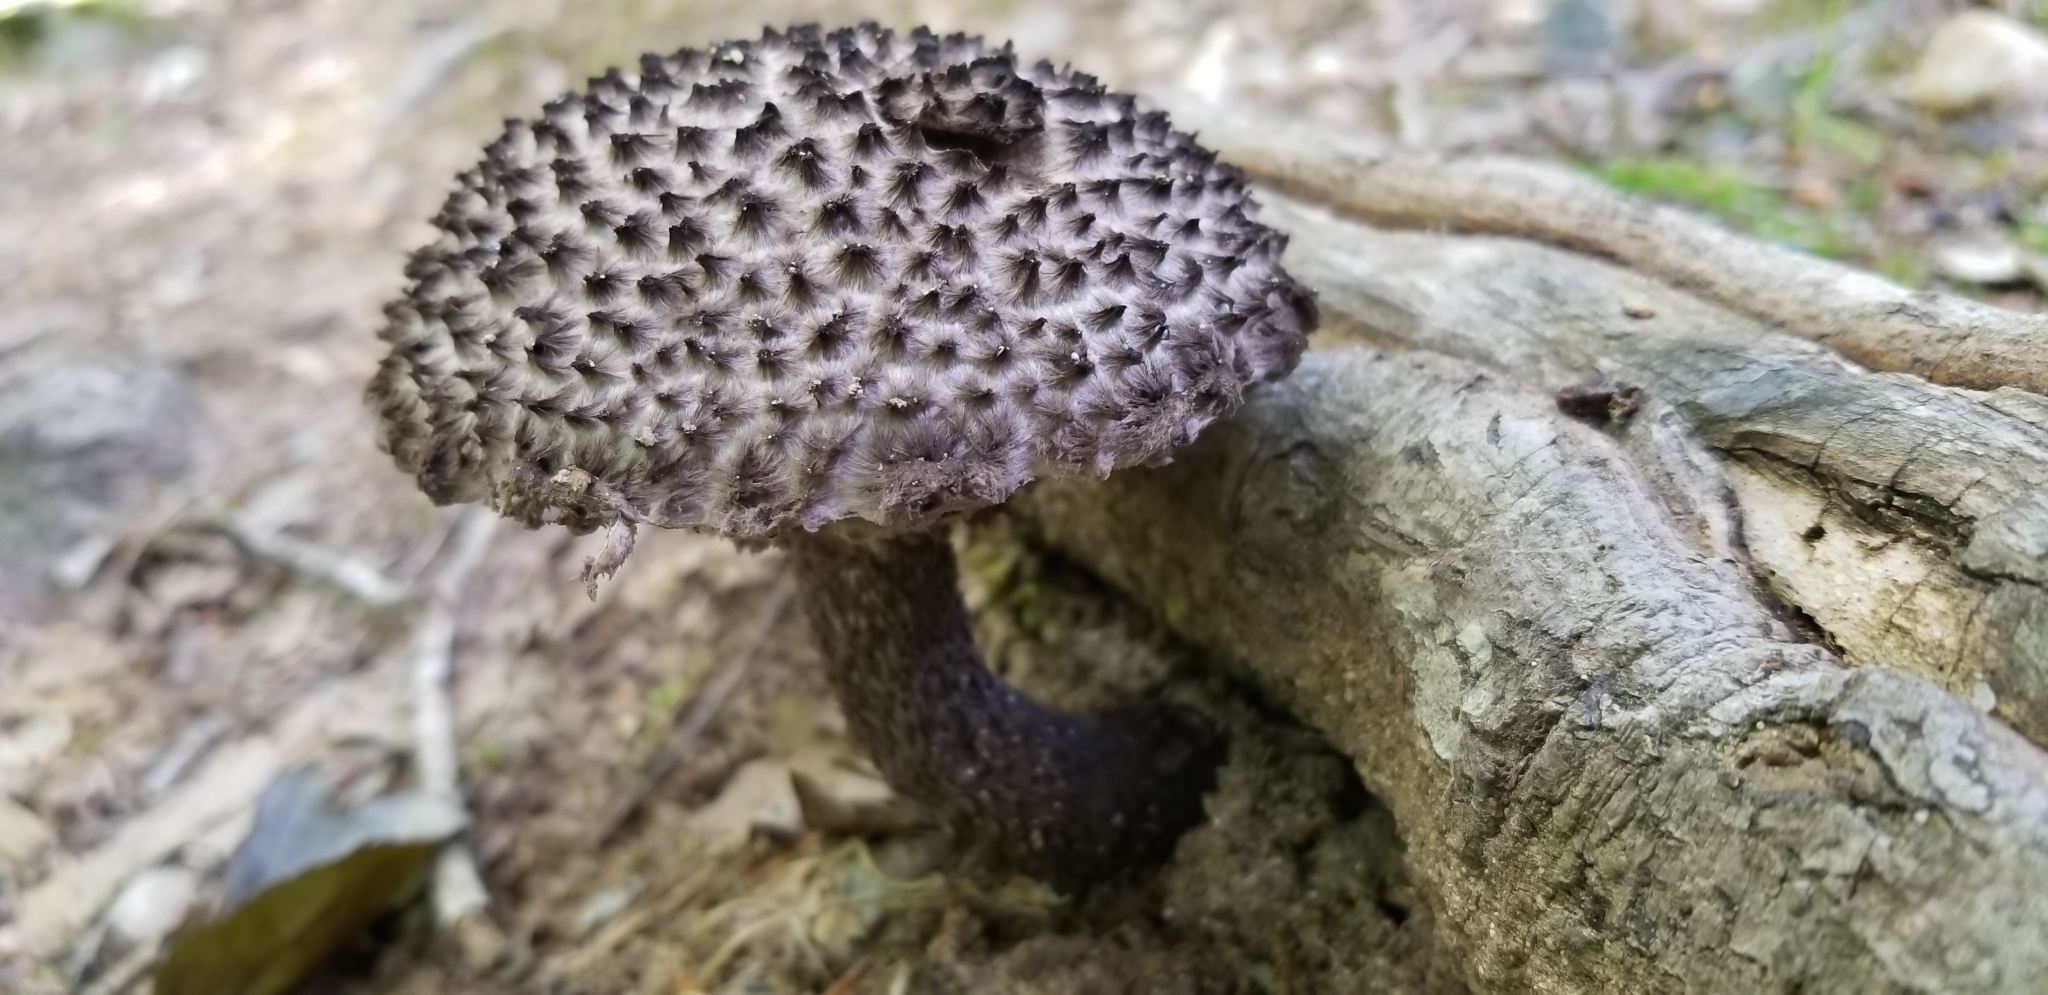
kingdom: Fungi
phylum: Basidiomycota
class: Agaricomycetes
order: Boletales
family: Boletaceae
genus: Strobilomyces
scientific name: Strobilomyces confusus
